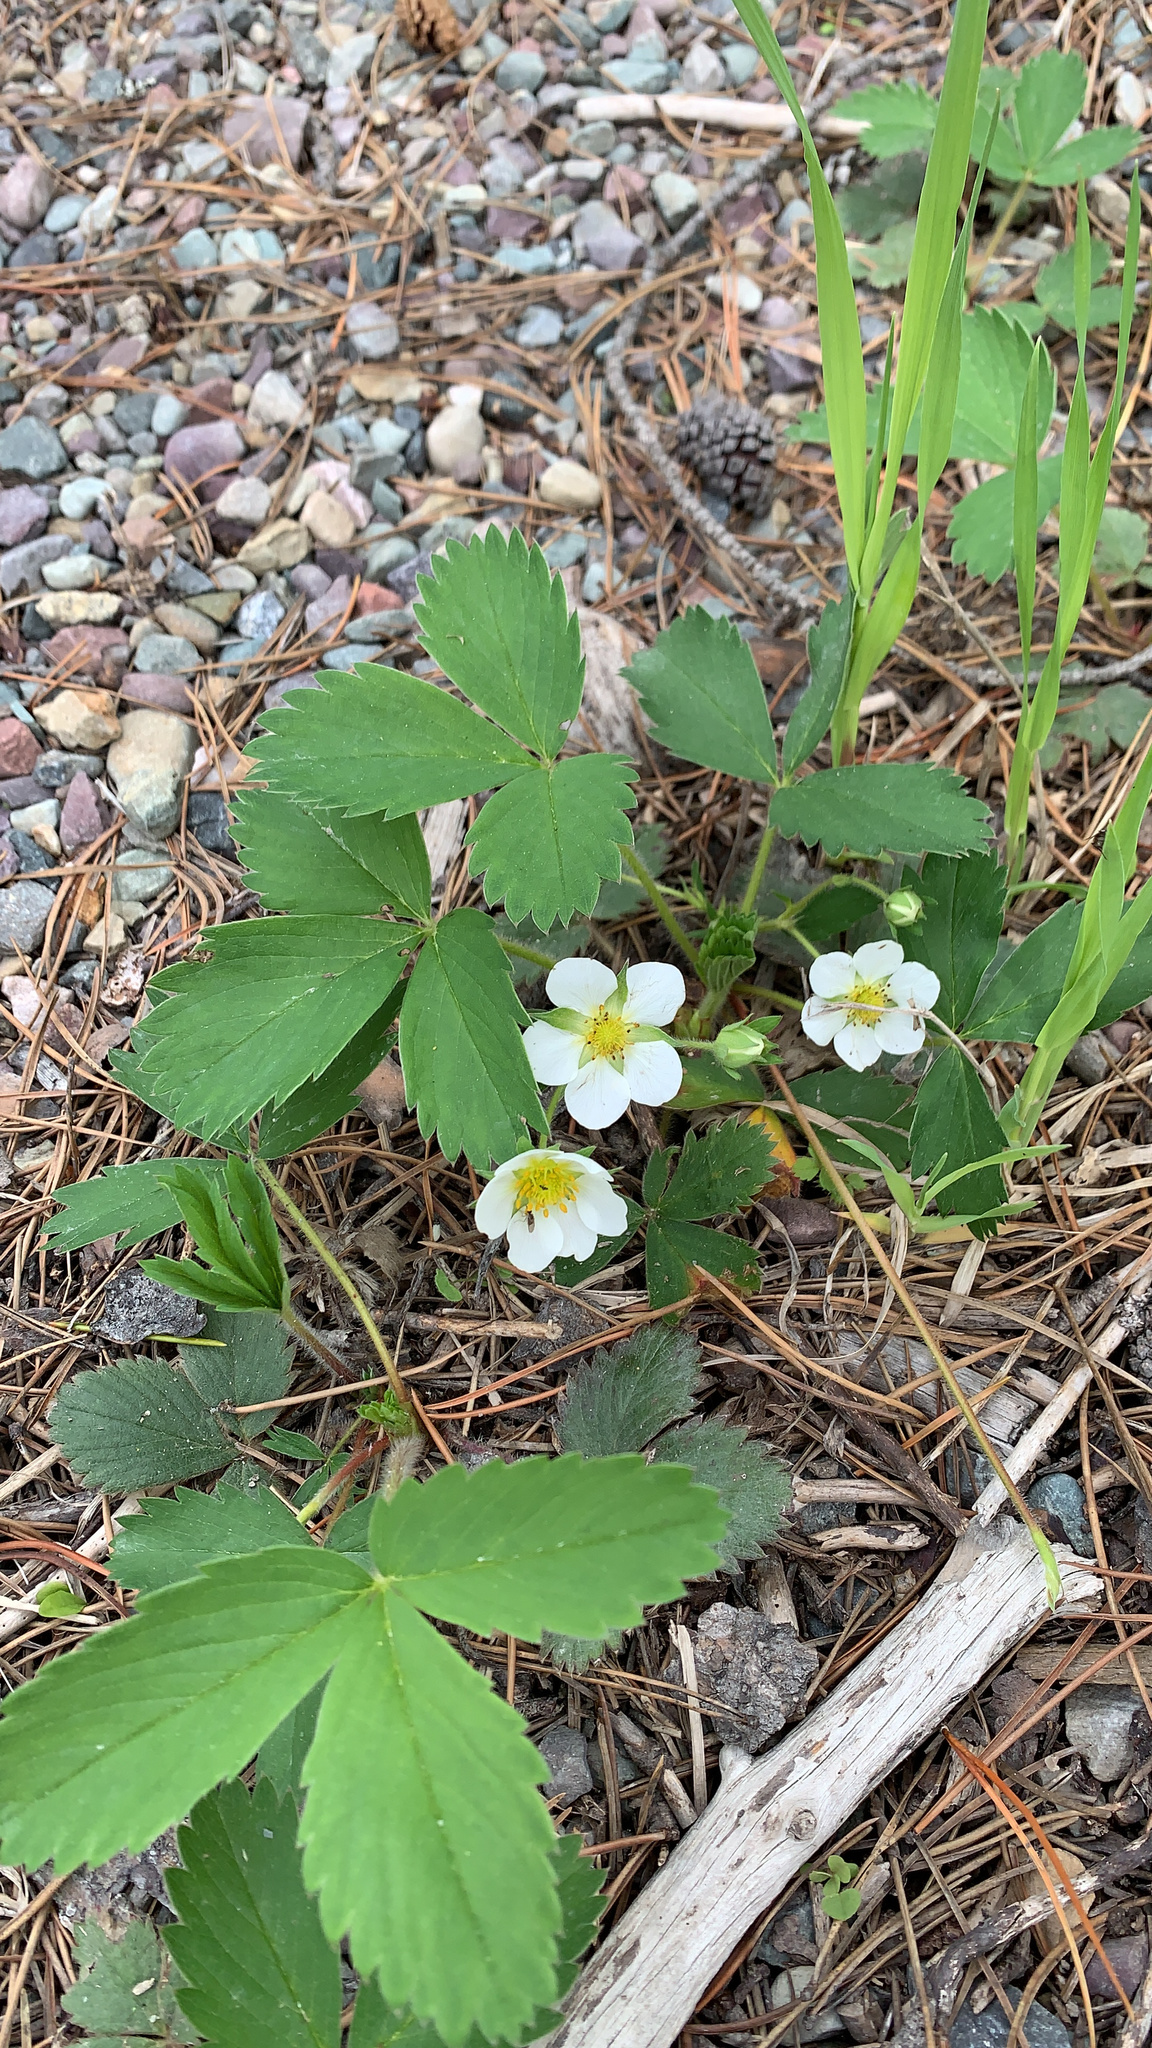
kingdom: Plantae
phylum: Tracheophyta
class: Magnoliopsida
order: Rosales
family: Rosaceae
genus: Fragaria
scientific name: Fragaria virginiana
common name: Thickleaved wild strawberry
